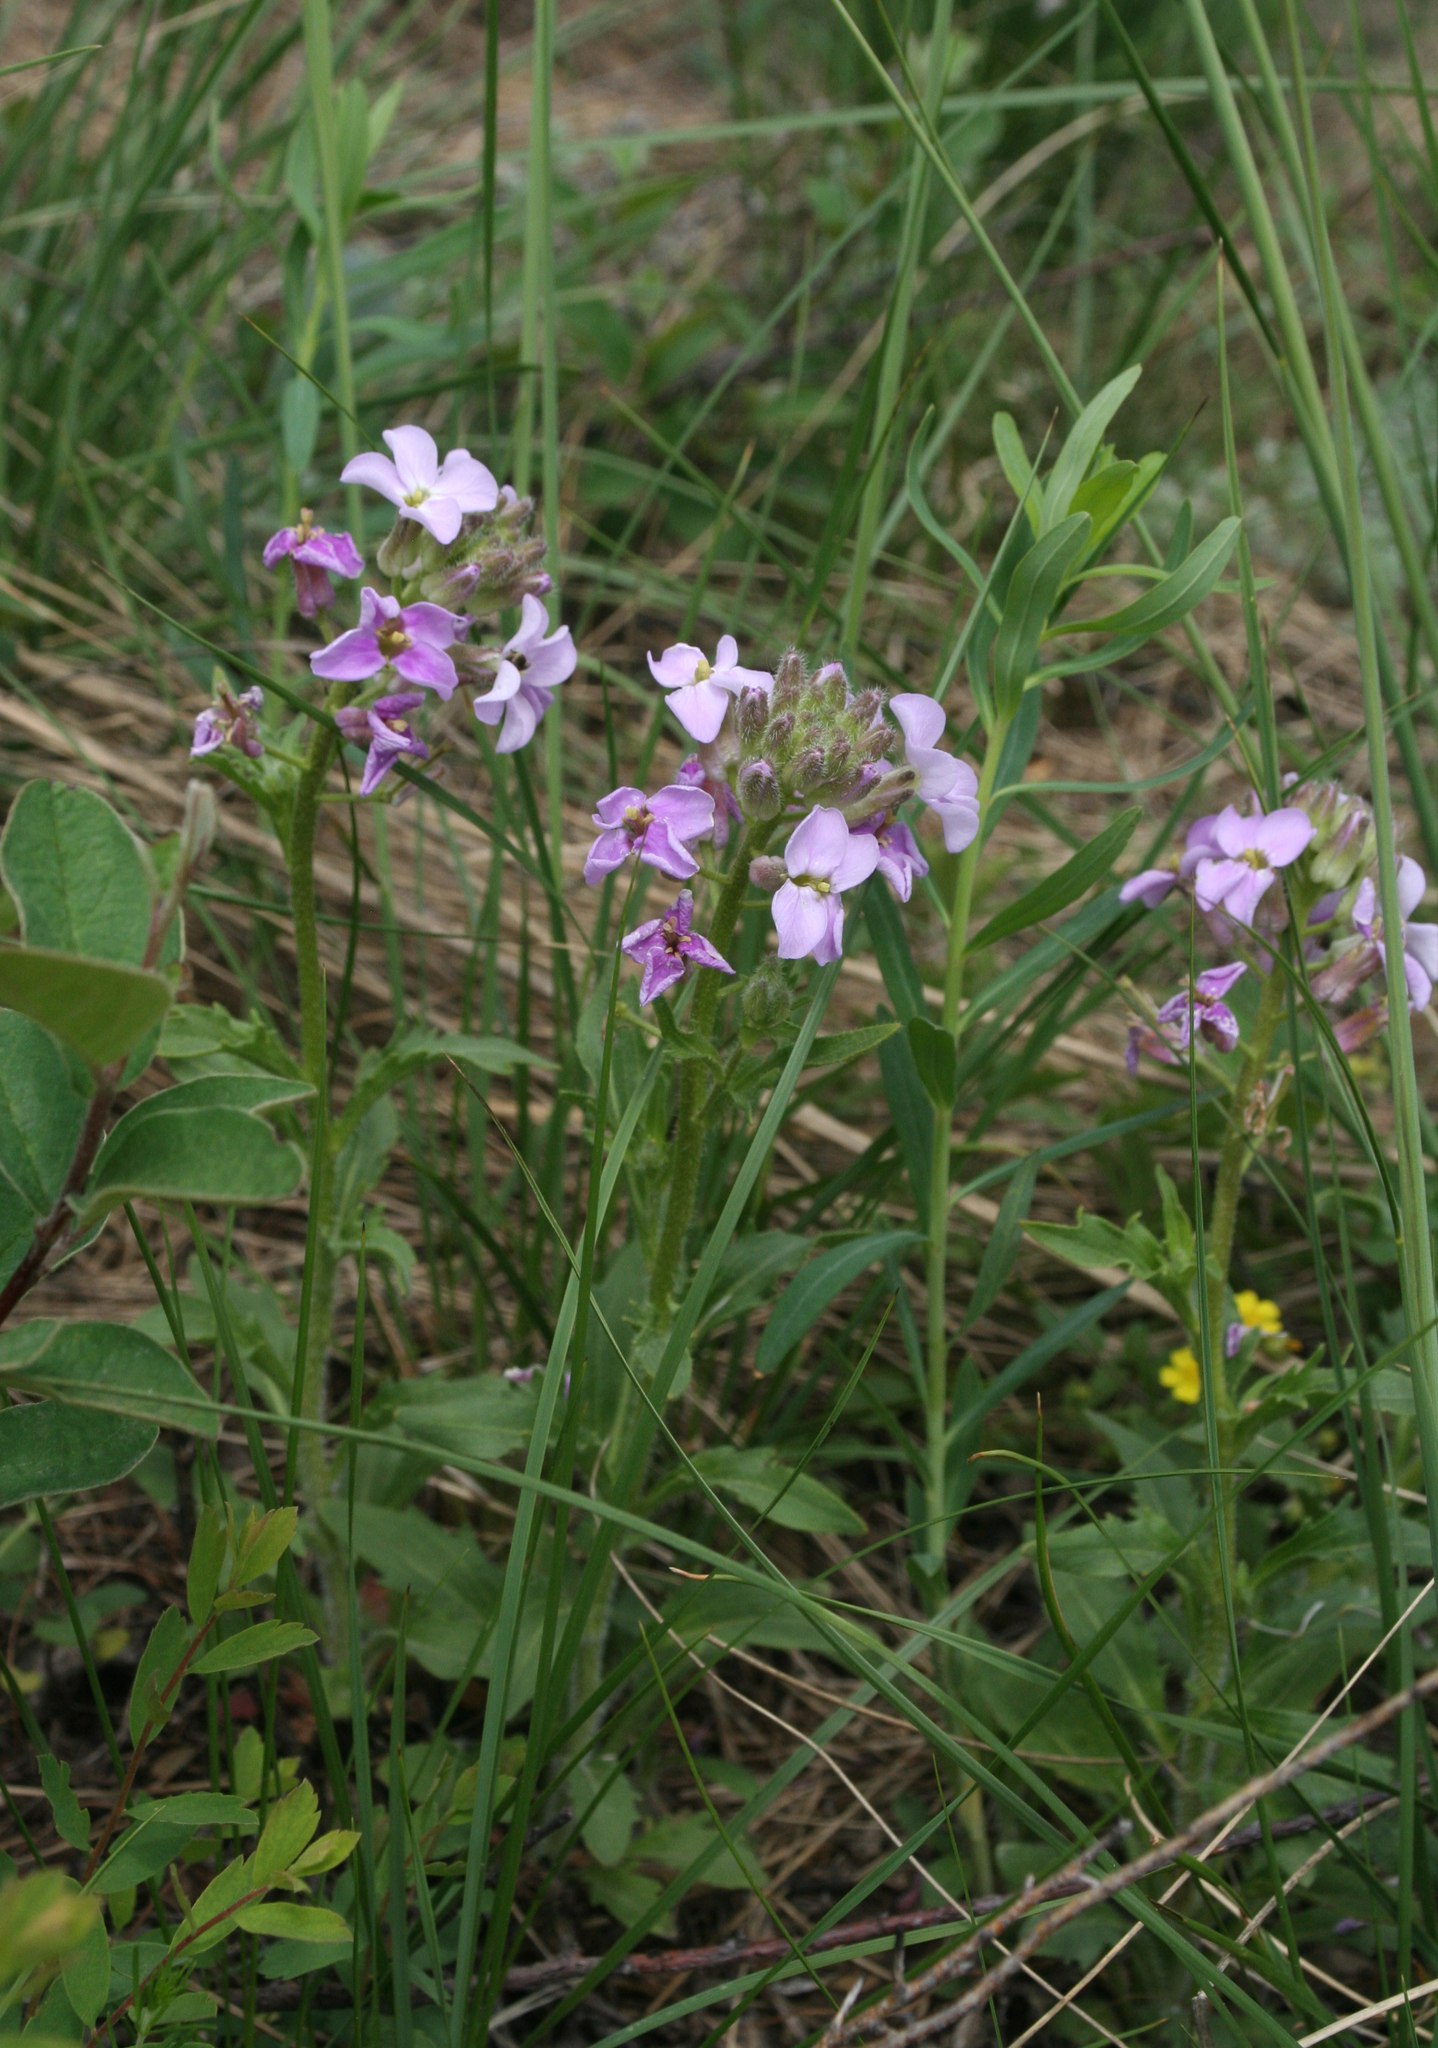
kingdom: Plantae
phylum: Tracheophyta
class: Magnoliopsida
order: Brassicales
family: Brassicaceae
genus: Clausia
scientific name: Clausia aprica
